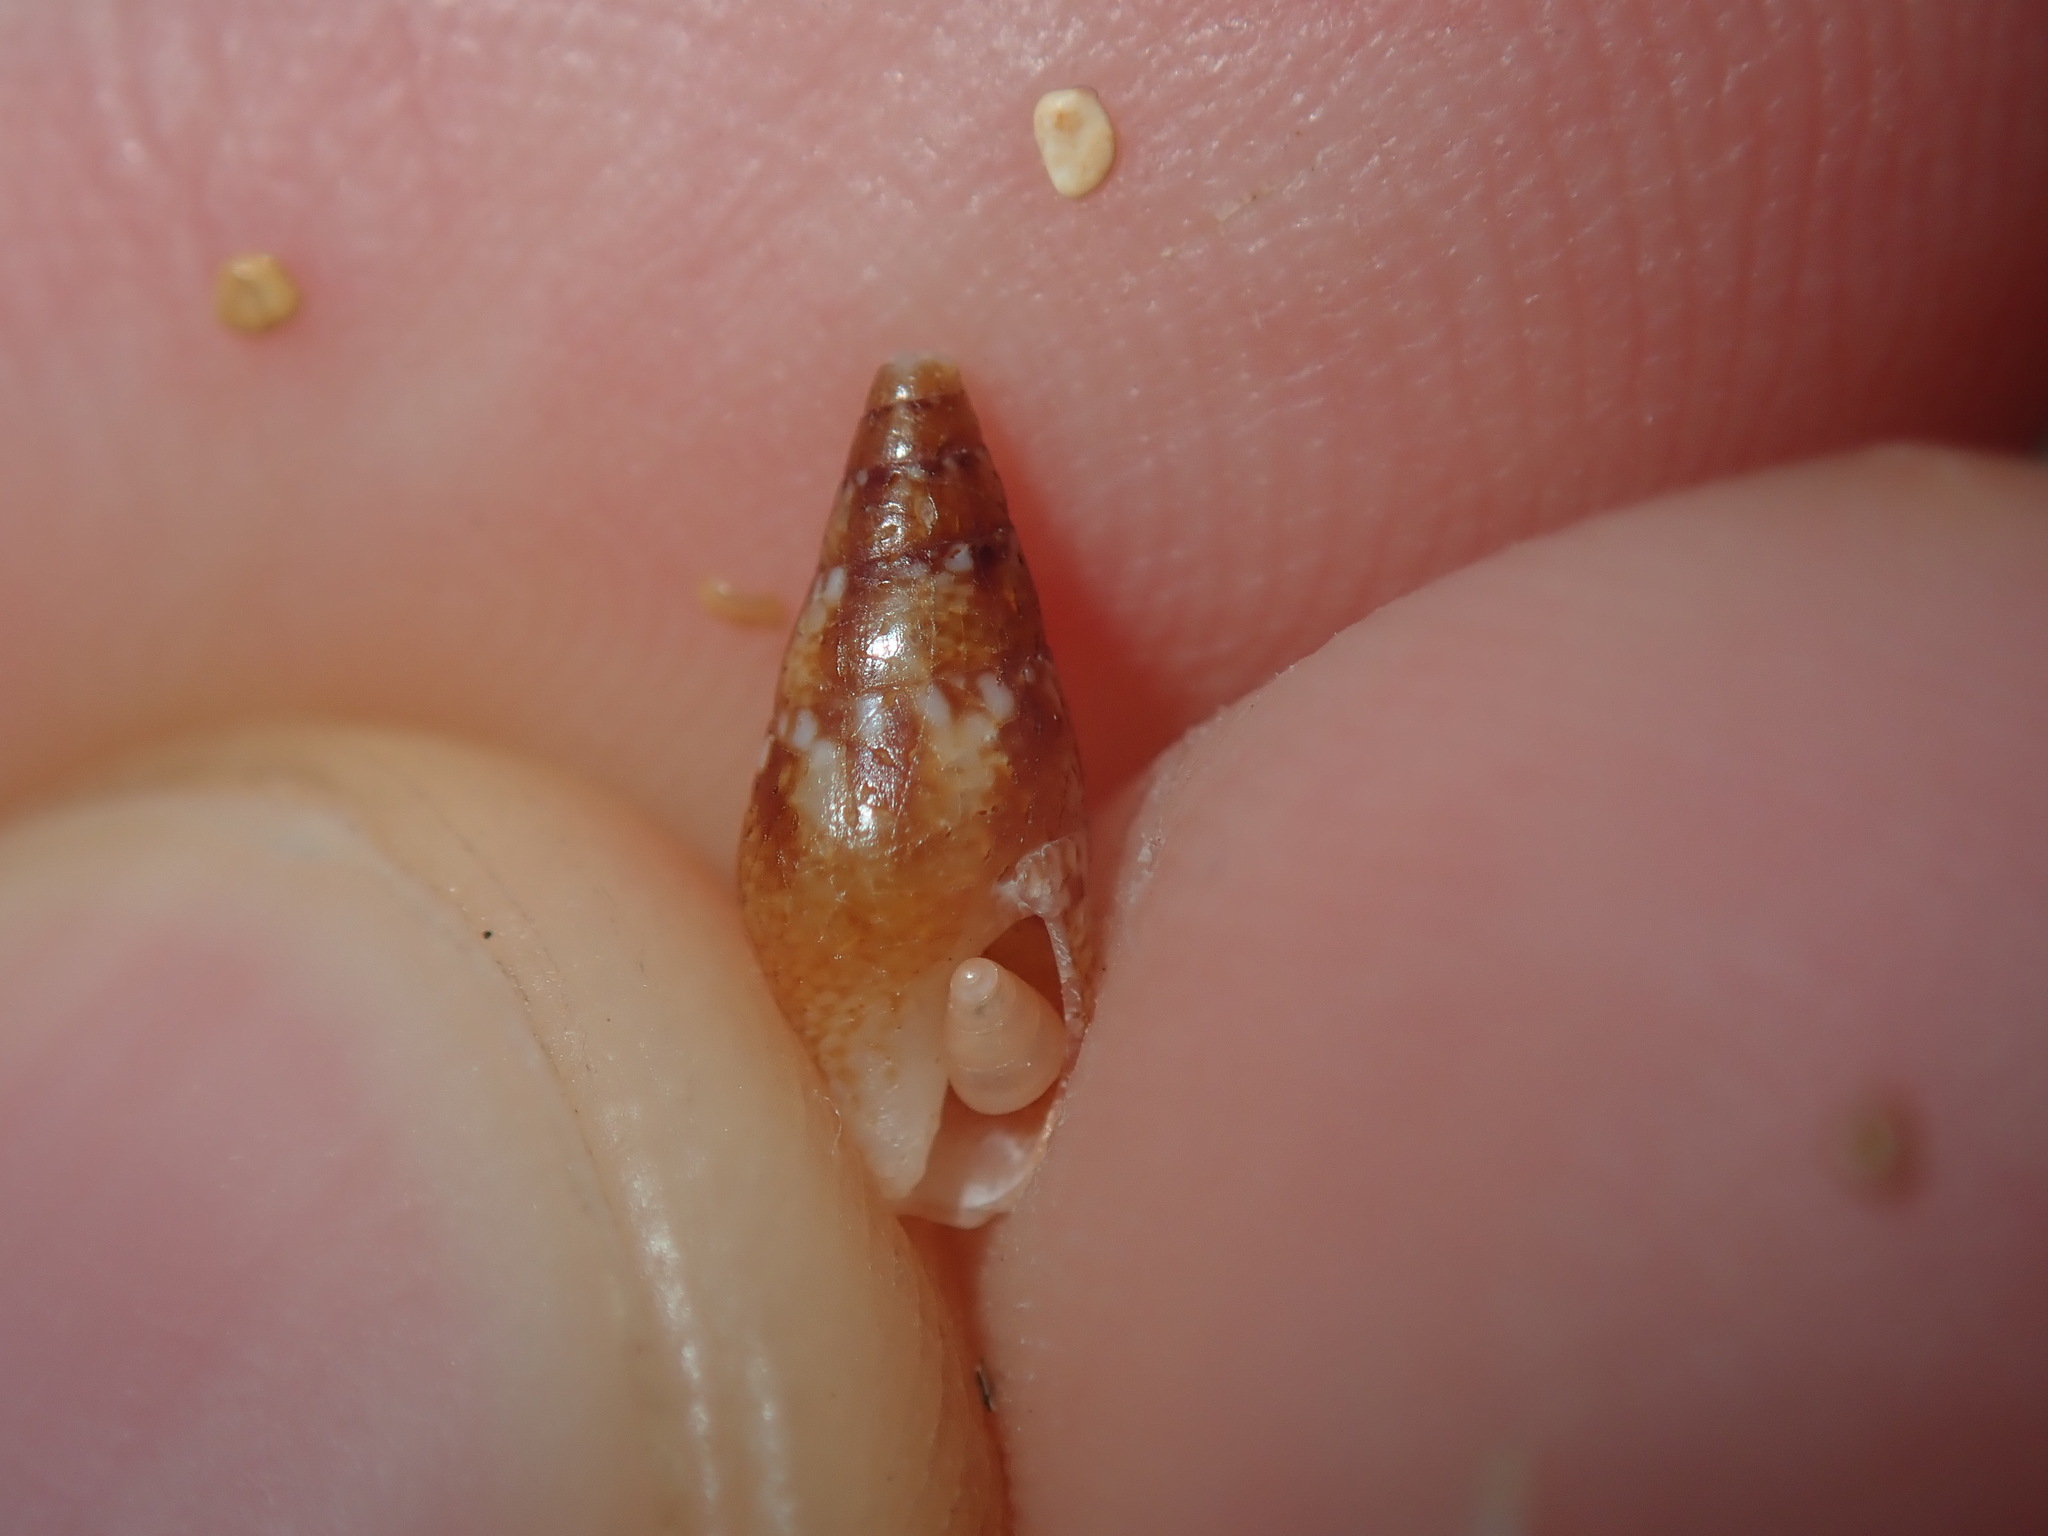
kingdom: Animalia
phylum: Mollusca
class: Gastropoda
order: Neogastropoda
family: Columbellidae
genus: Mitrella
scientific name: Mitrella tayloriana
